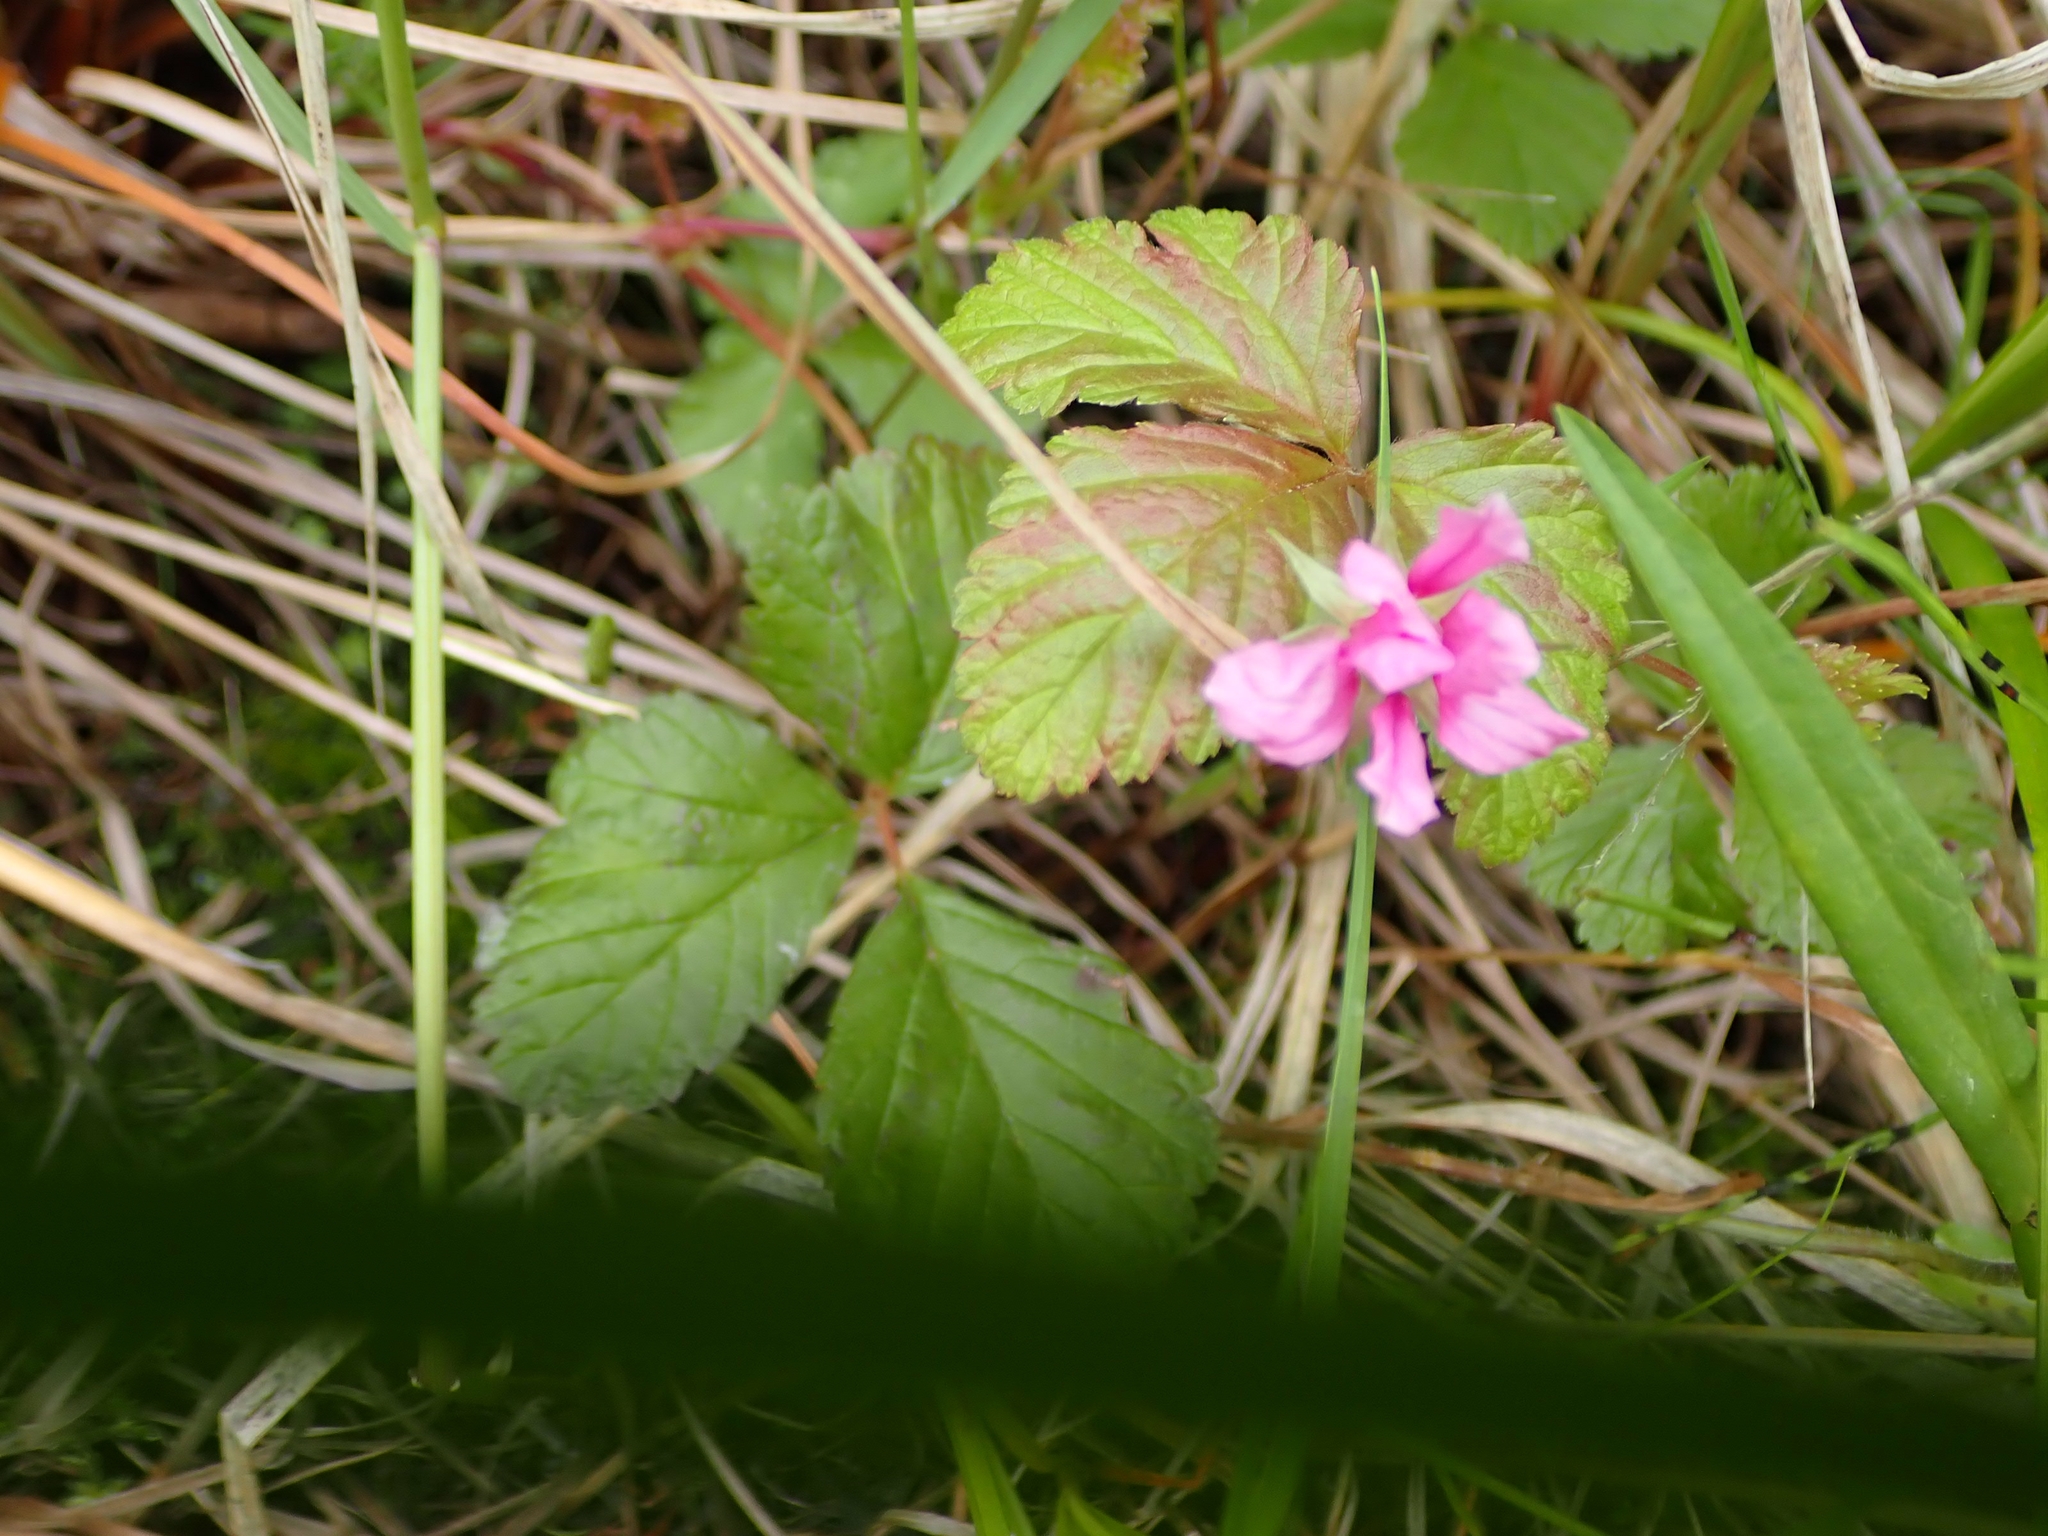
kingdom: Plantae
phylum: Tracheophyta
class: Magnoliopsida
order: Rosales
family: Rosaceae
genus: Rubus
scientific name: Rubus arcticus
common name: Arctic bramble
